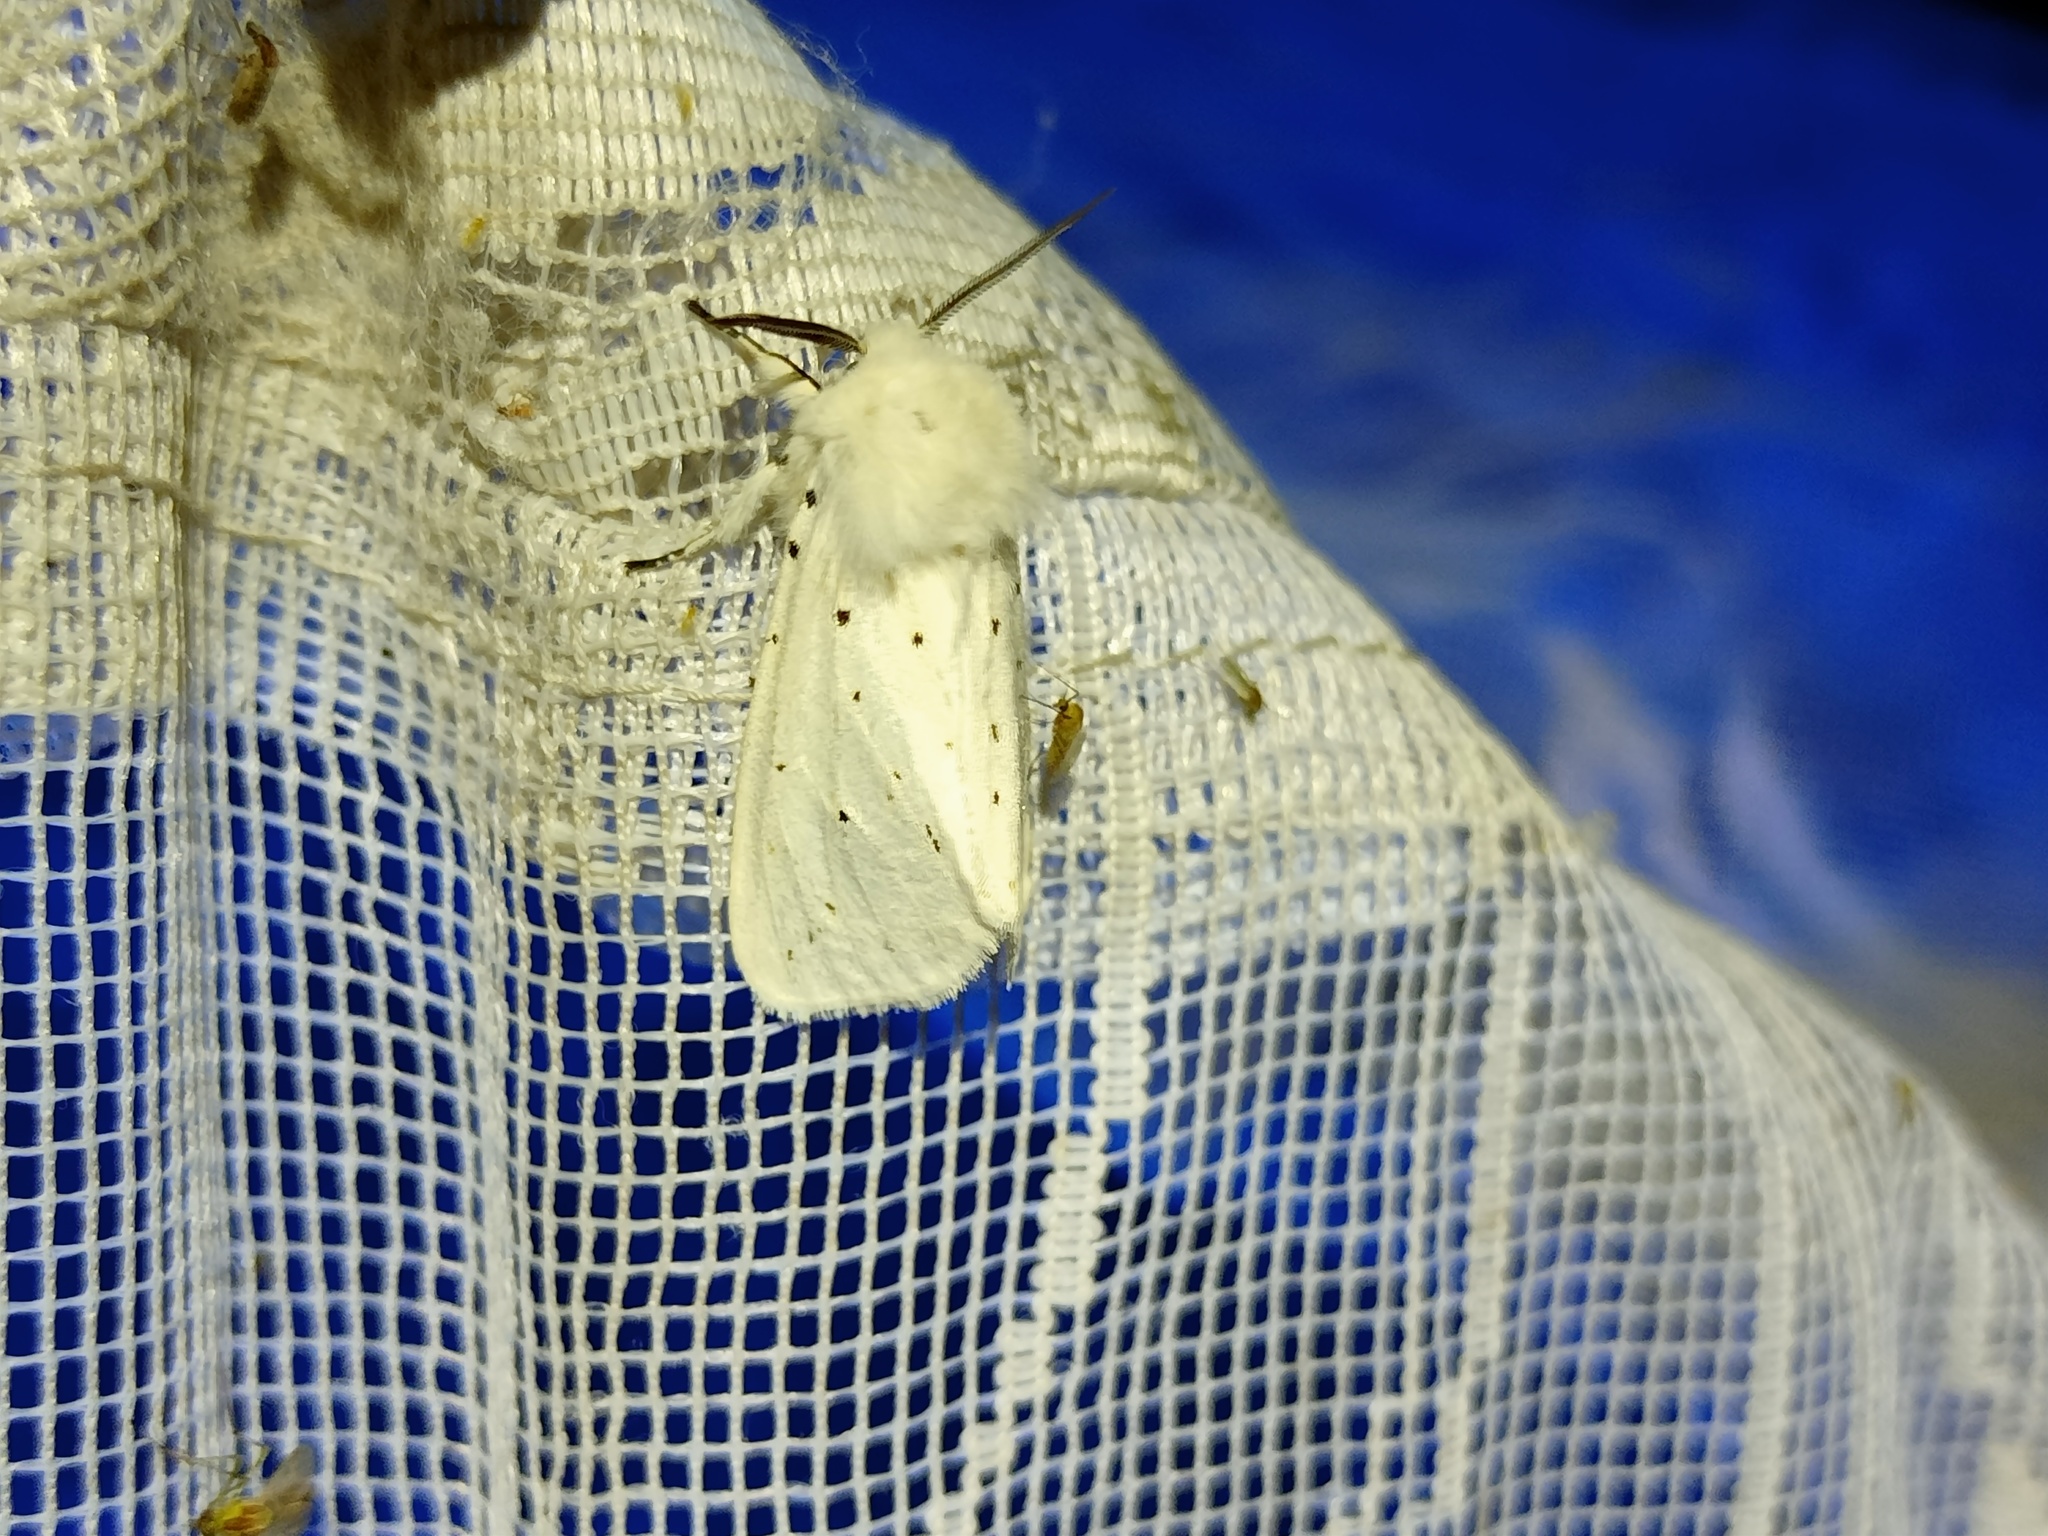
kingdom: Animalia
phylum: Arthropoda
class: Insecta
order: Lepidoptera
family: Erebidae
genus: Spilosoma
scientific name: Spilosoma lubricipeda
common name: White ermine
